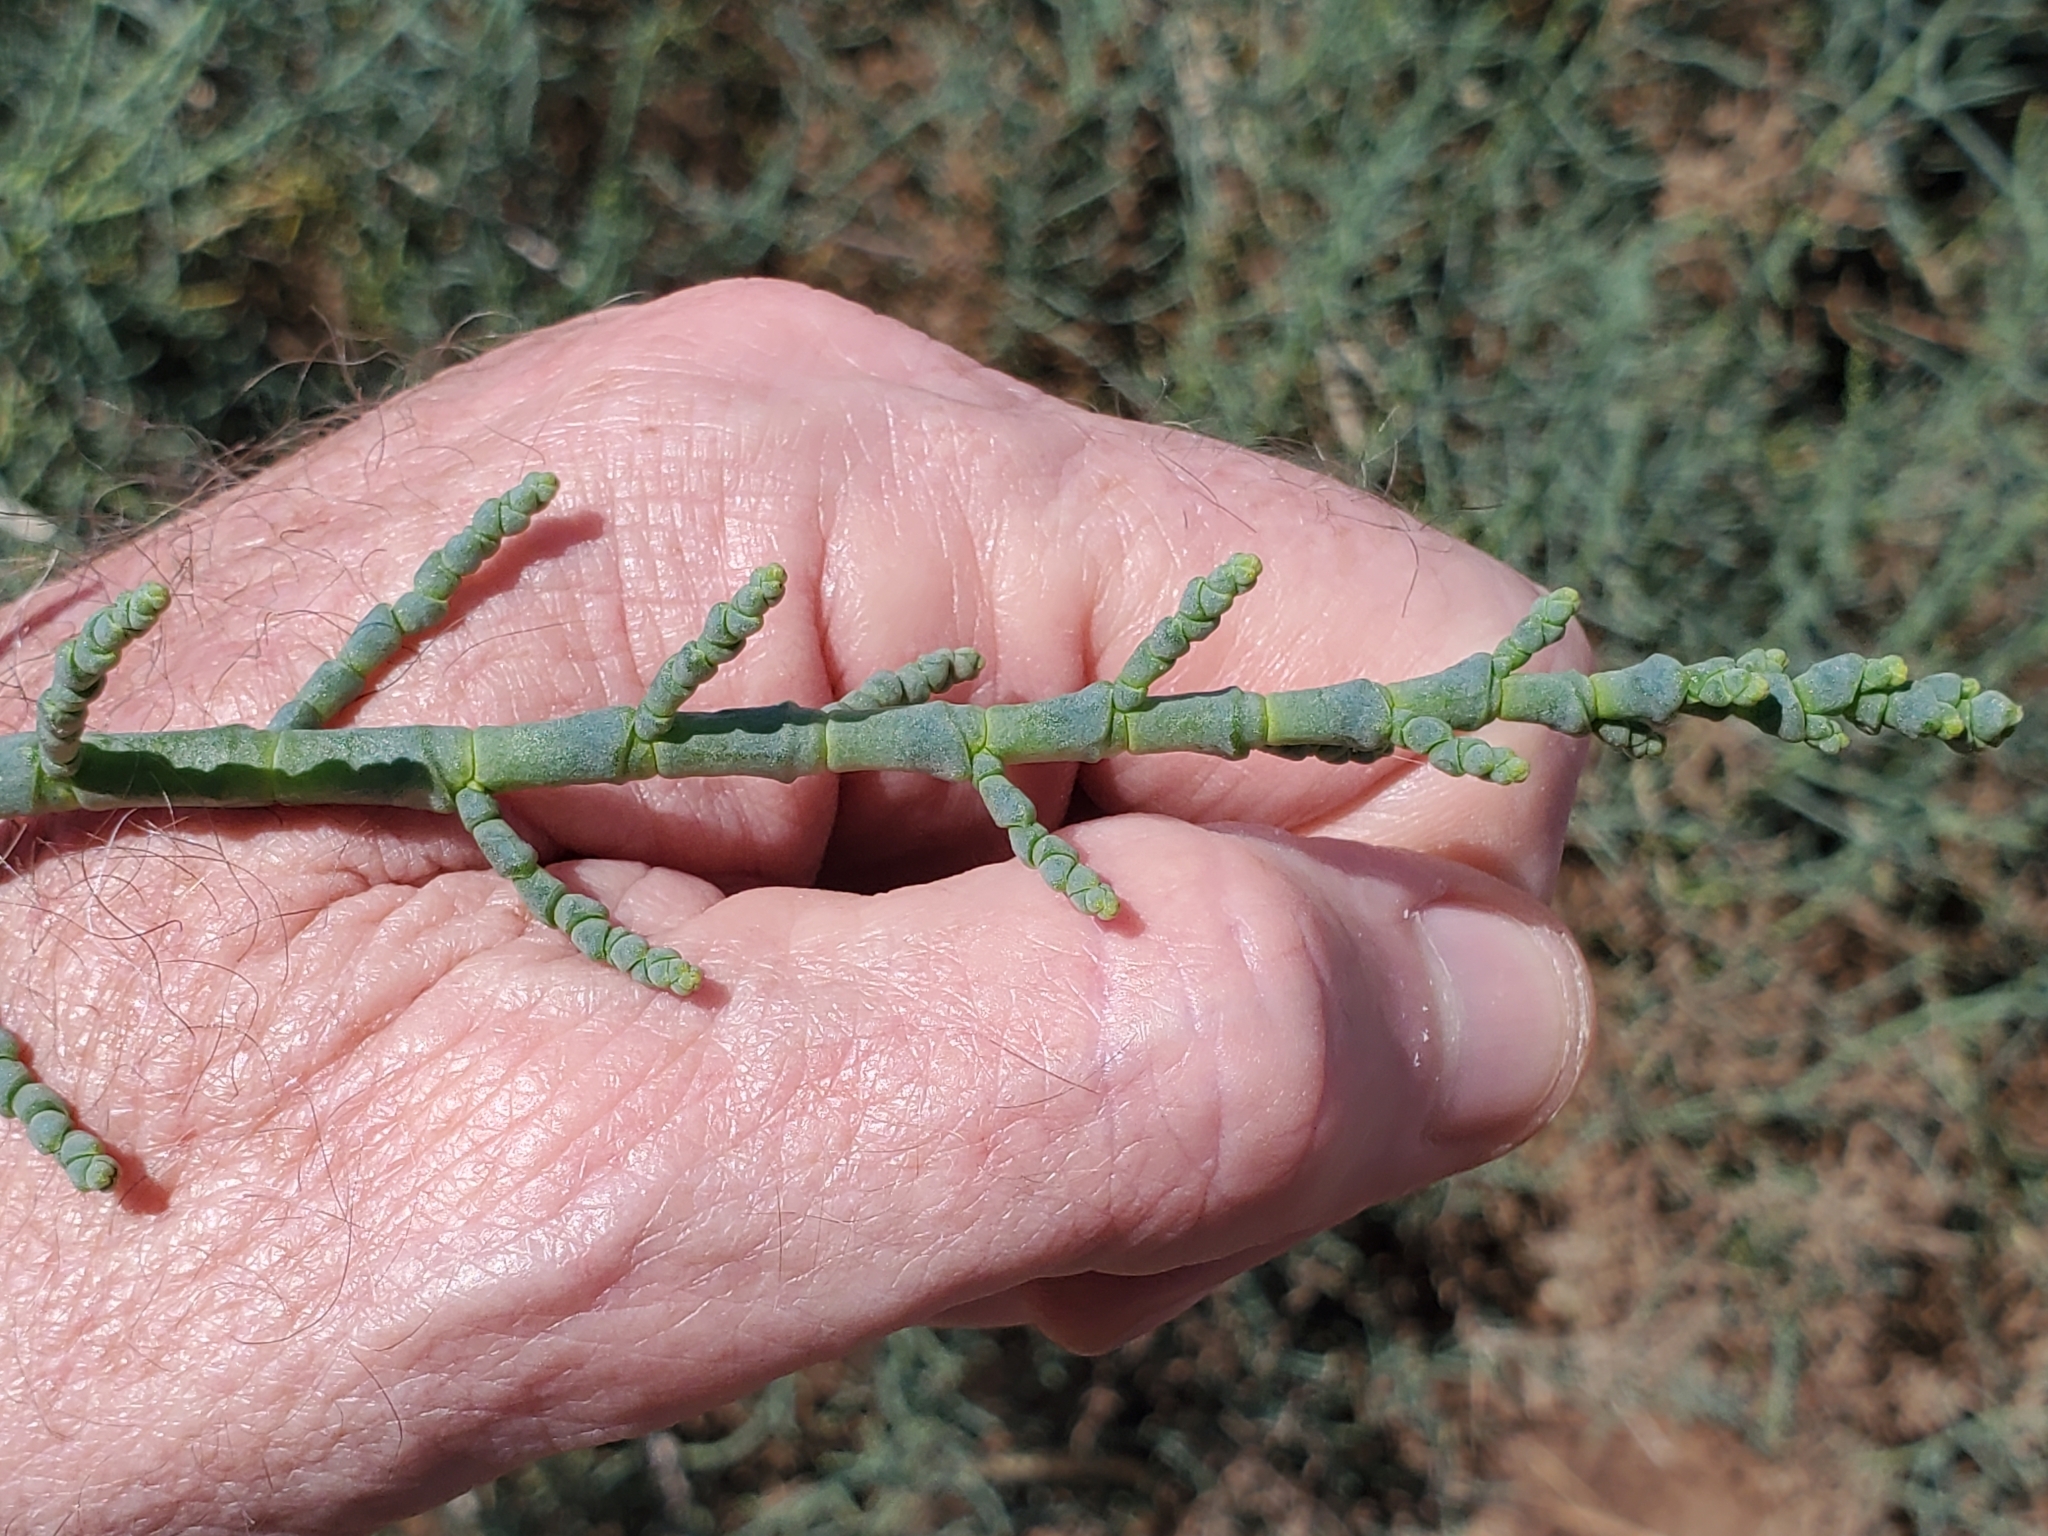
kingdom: Plantae
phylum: Tracheophyta
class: Magnoliopsida
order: Caryophyllales
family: Amaranthaceae
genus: Allenrolfea
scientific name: Allenrolfea occidentalis
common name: Iodine-bush
